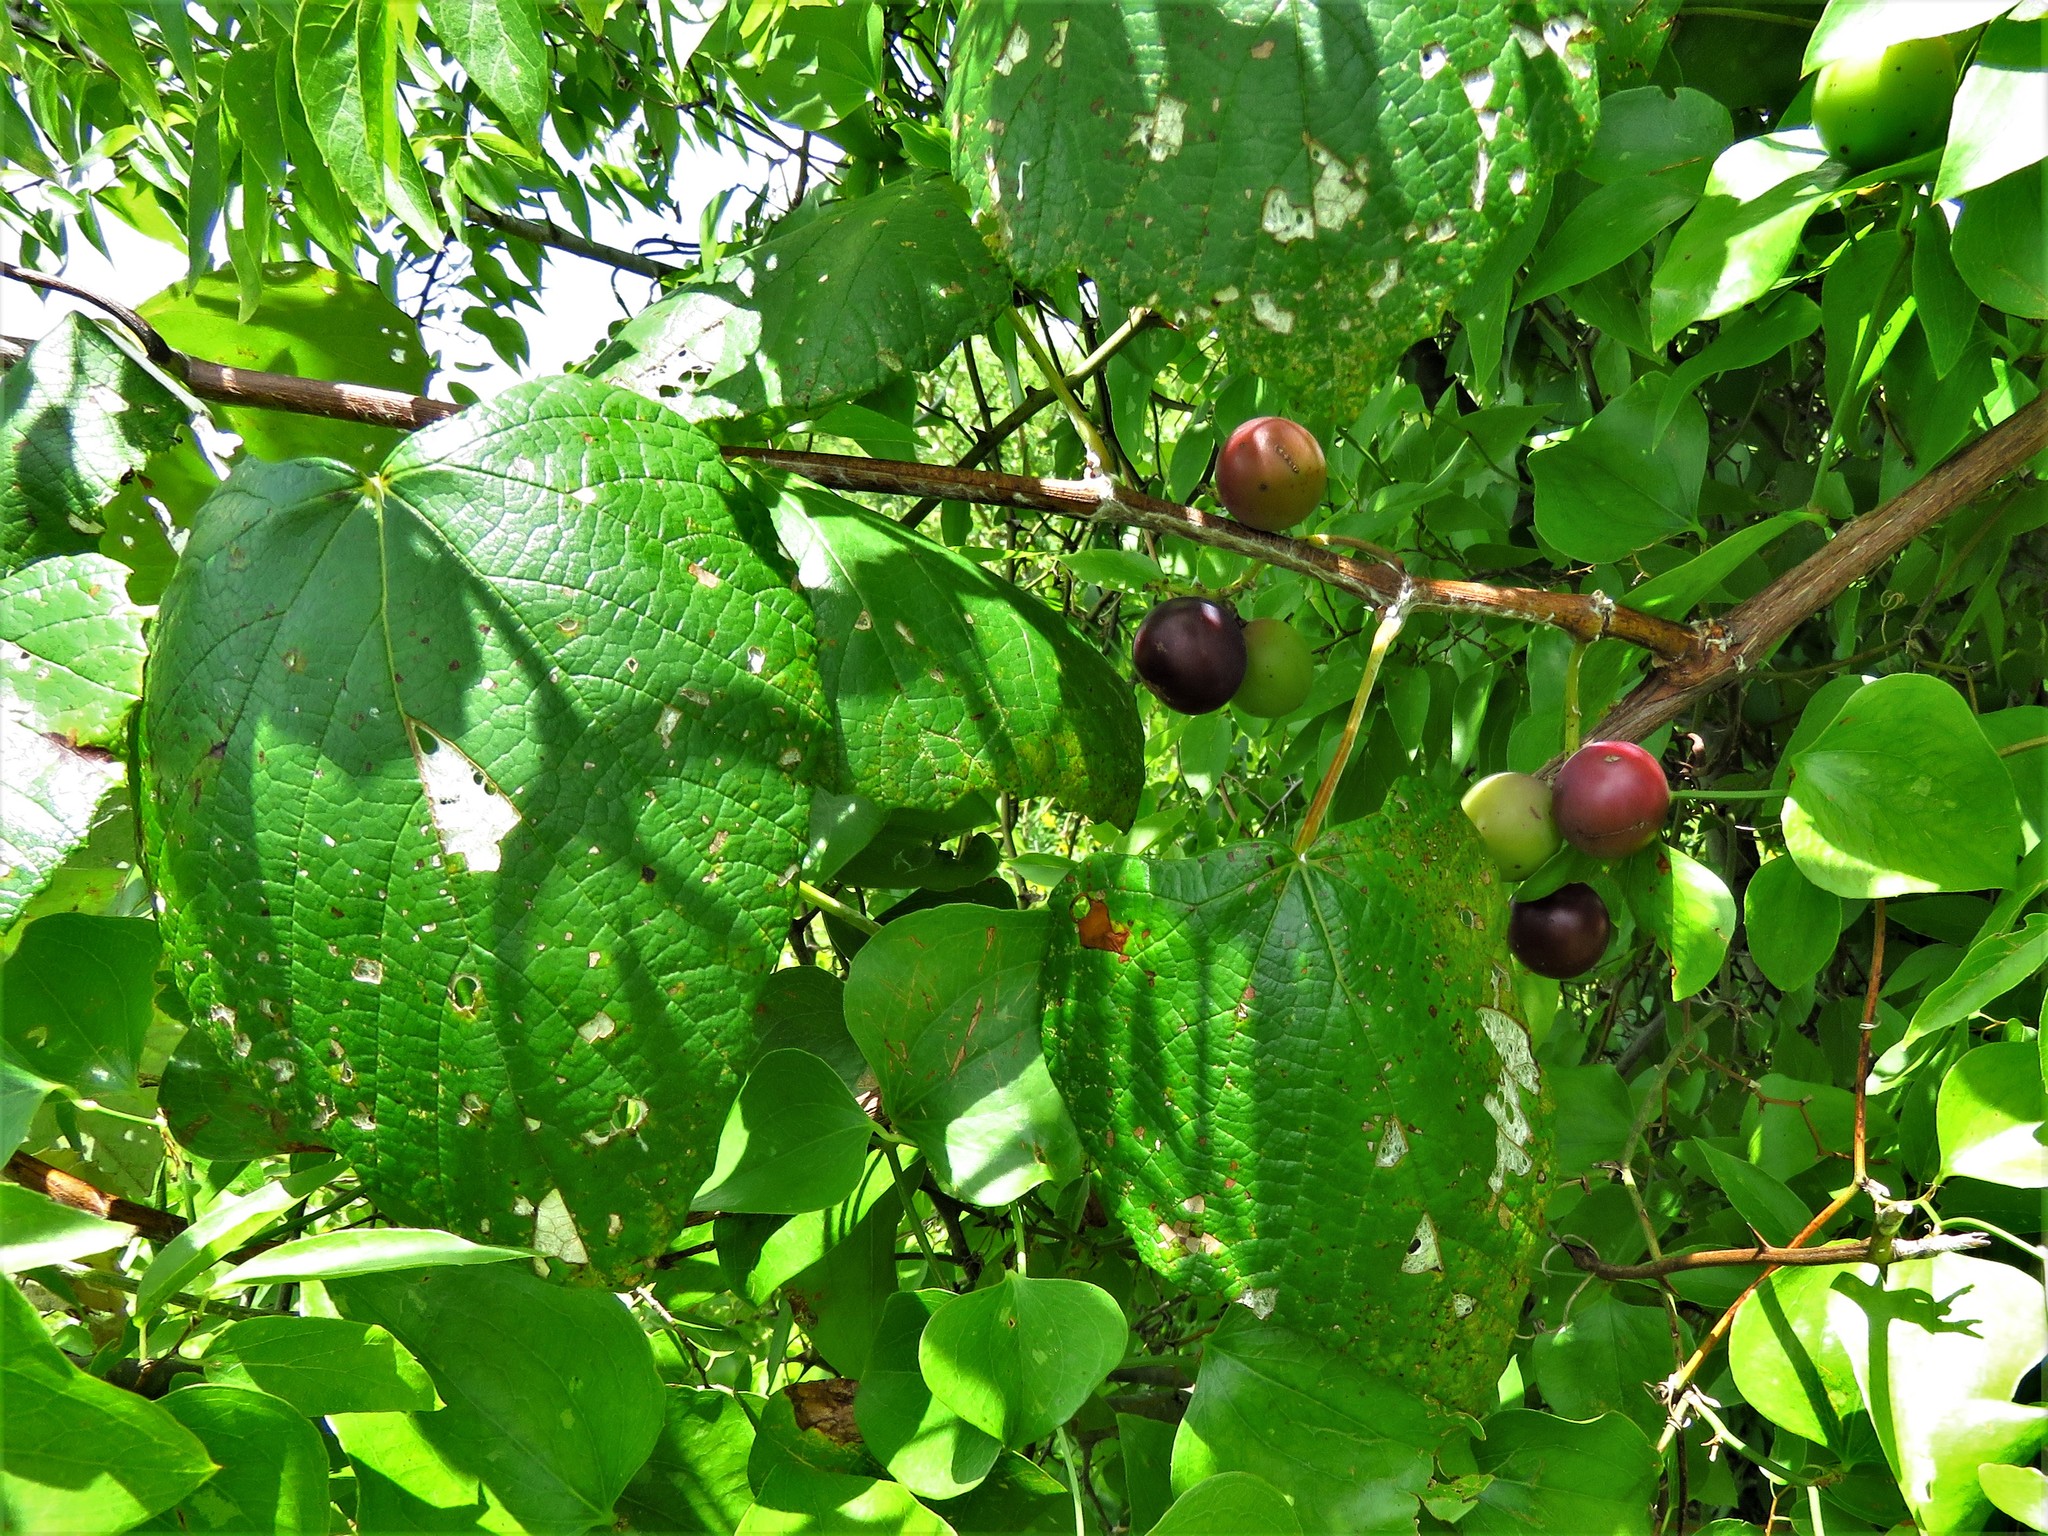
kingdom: Plantae
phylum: Tracheophyta
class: Magnoliopsida
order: Vitales
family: Vitaceae
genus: Vitis
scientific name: Vitis mustangensis
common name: Mustang grape
